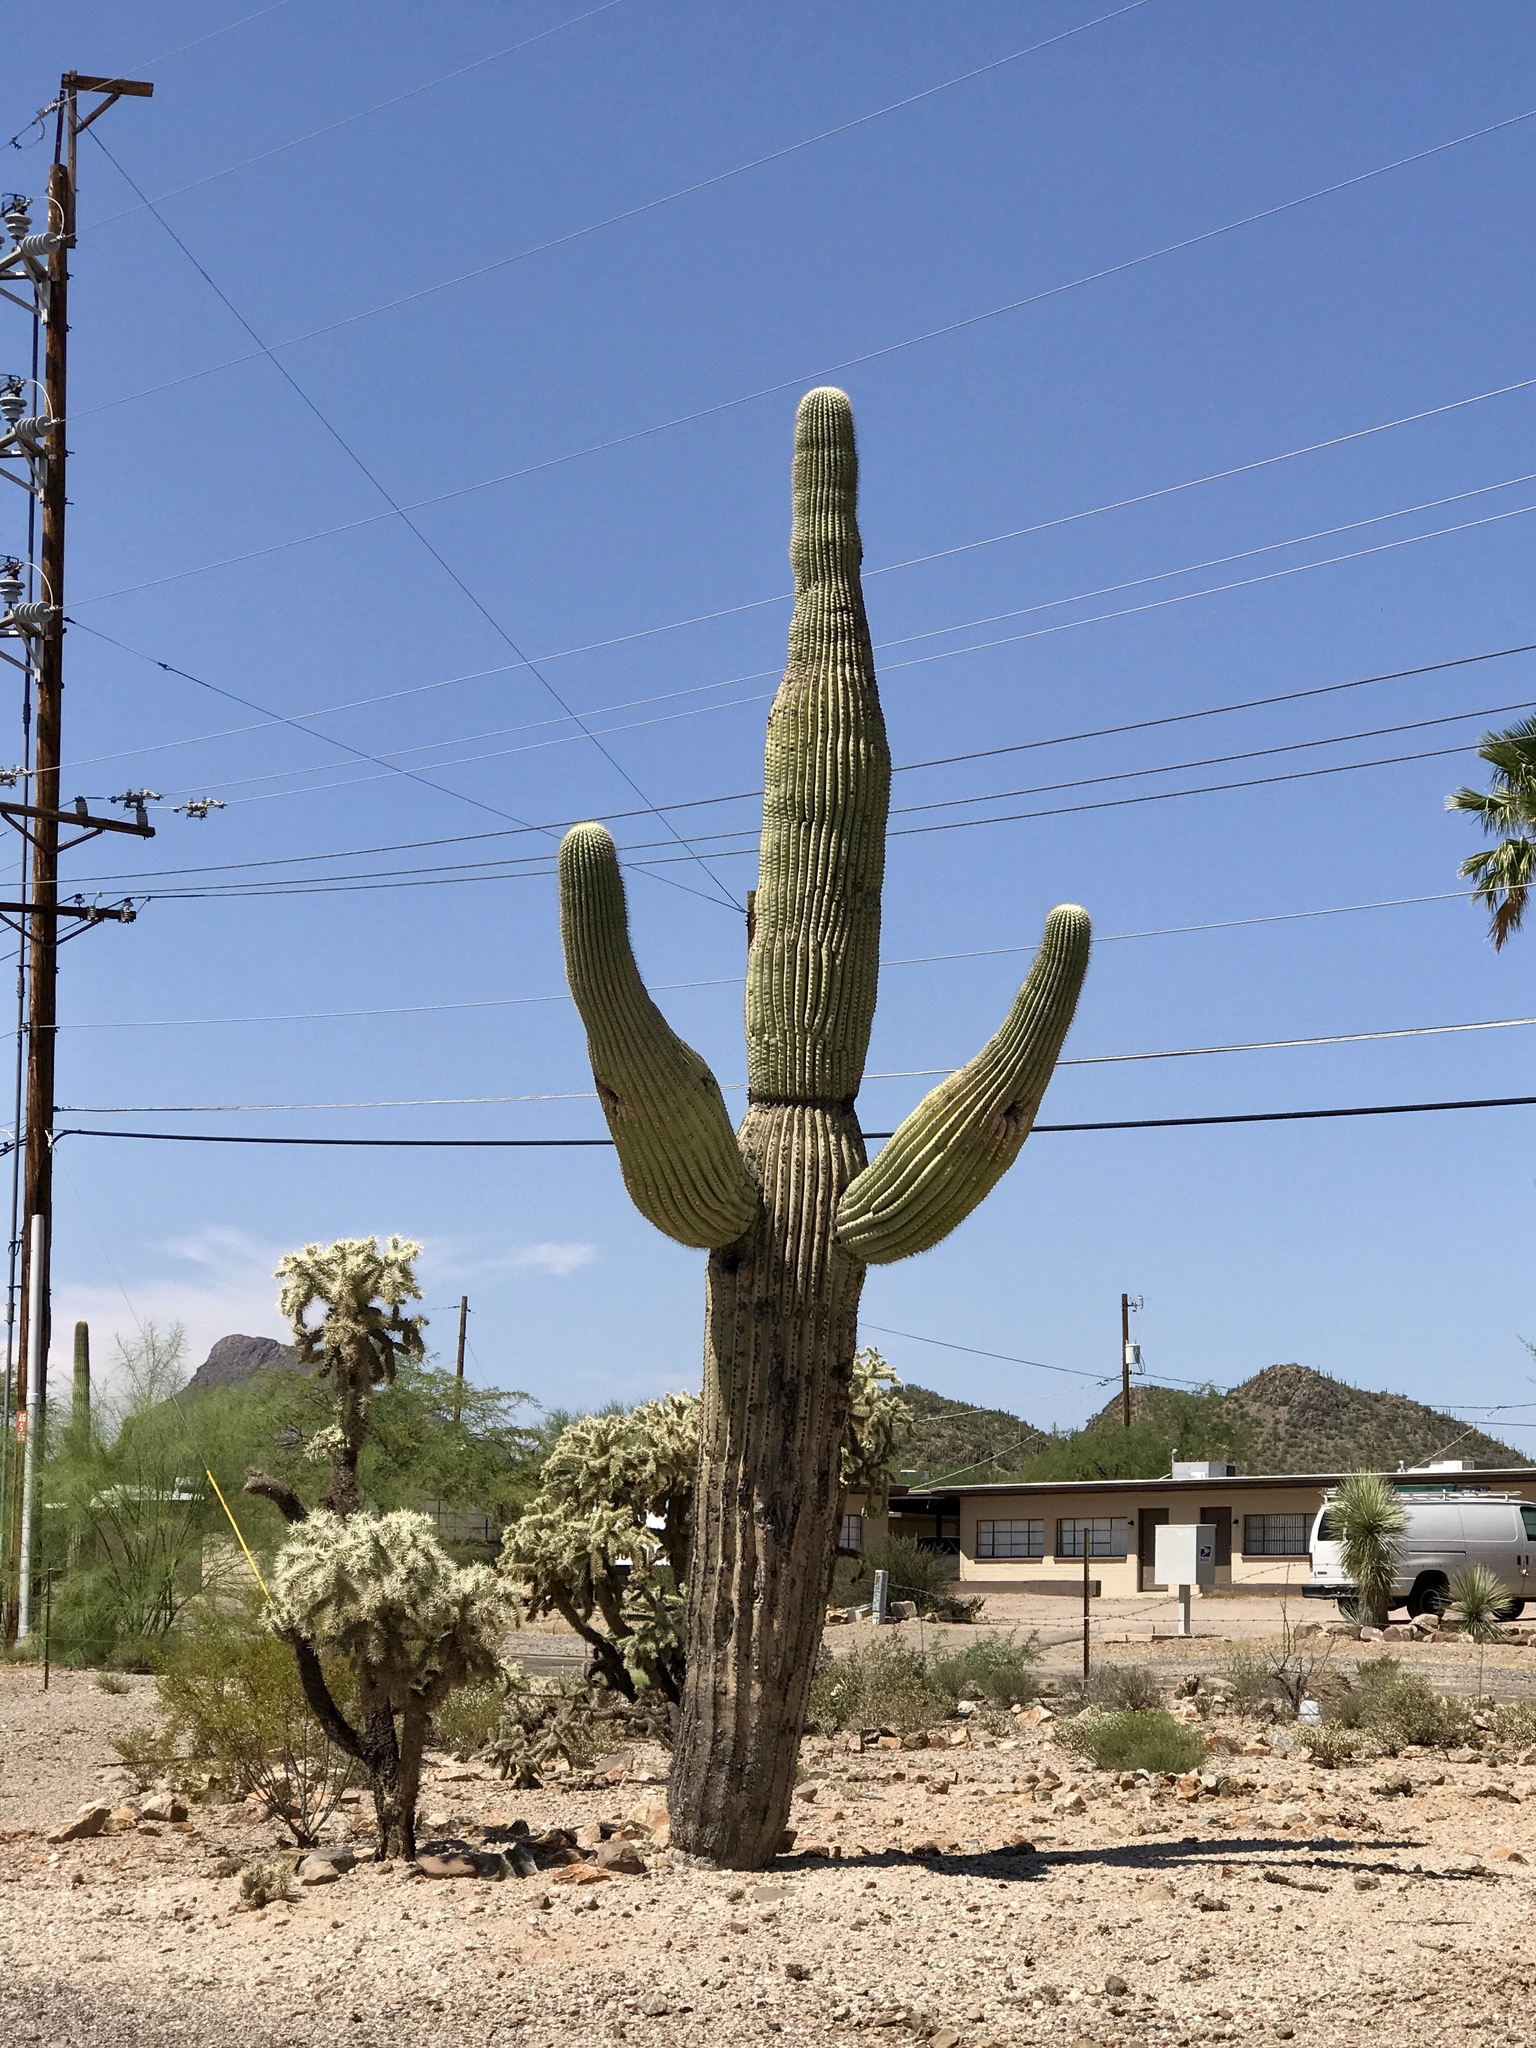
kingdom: Plantae
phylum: Tracheophyta
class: Magnoliopsida
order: Caryophyllales
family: Cactaceae
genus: Carnegiea
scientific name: Carnegiea gigantea
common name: Saguaro
